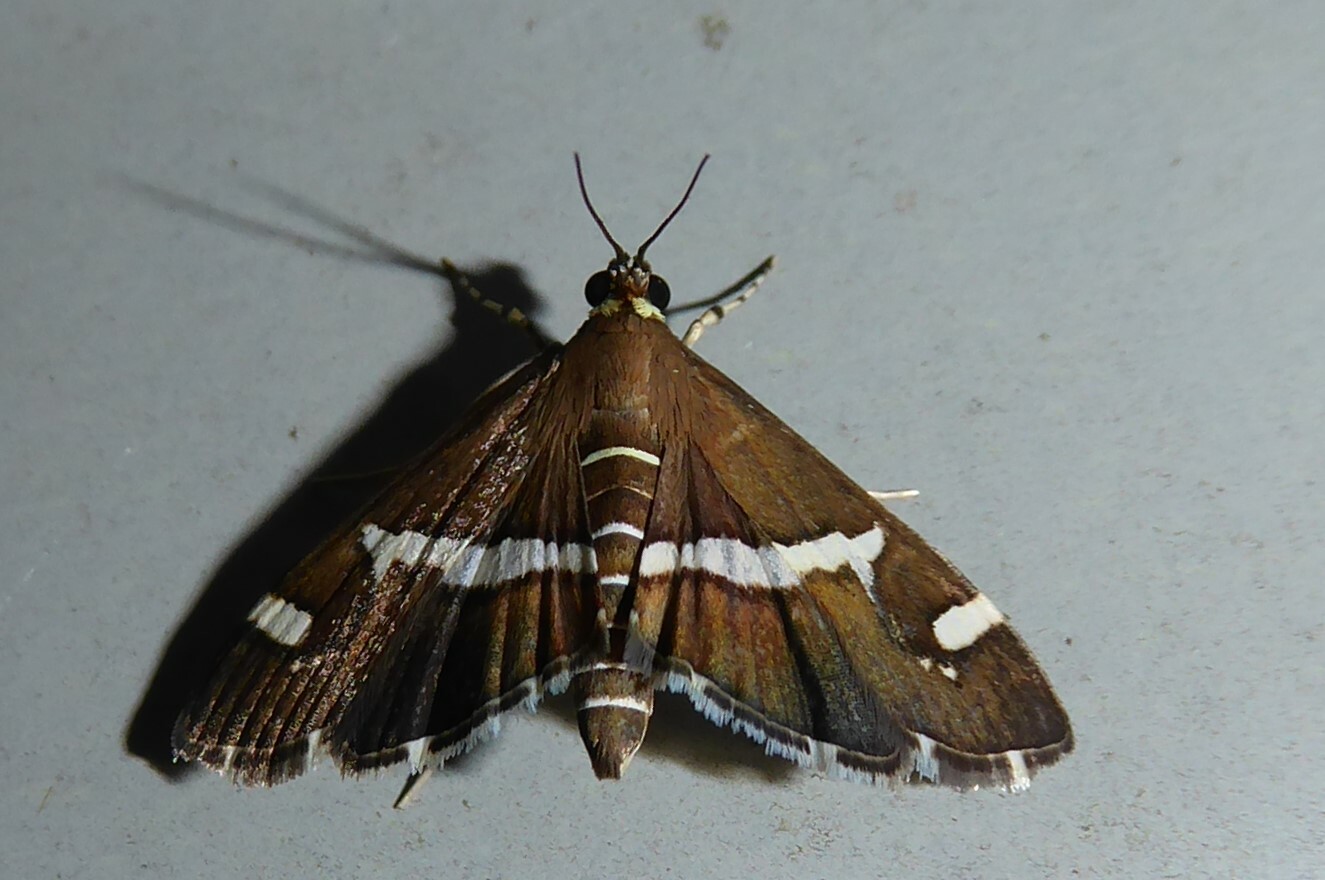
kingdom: Animalia
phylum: Arthropoda
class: Insecta
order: Lepidoptera
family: Crambidae
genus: Spoladea
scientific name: Spoladea recurvalis
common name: Beet webworm moth
